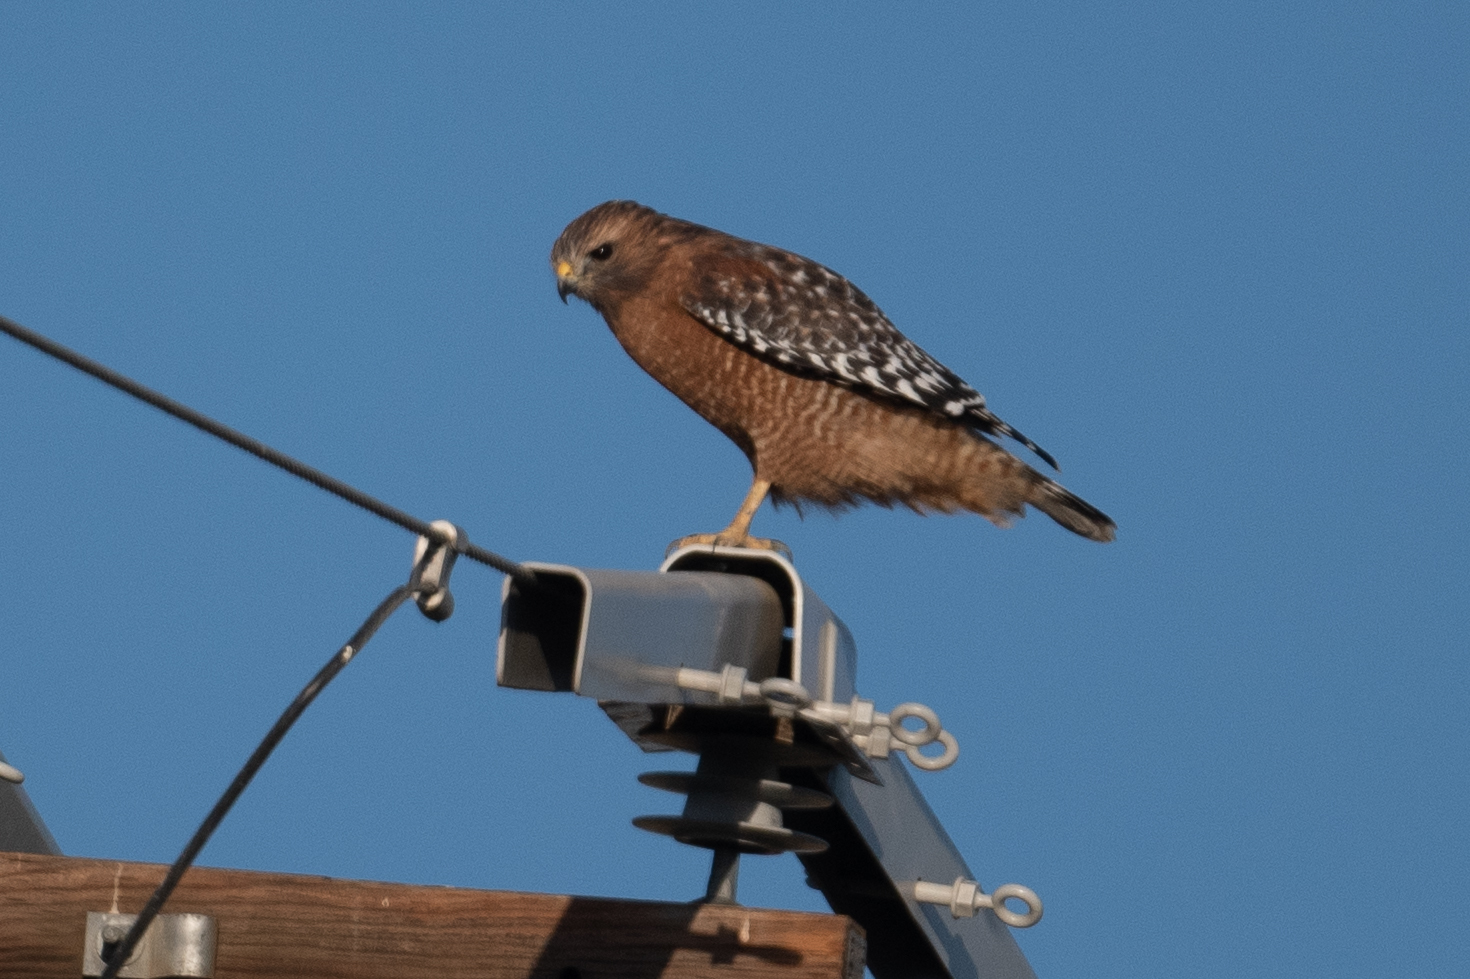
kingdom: Animalia
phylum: Chordata
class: Aves
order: Accipitriformes
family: Accipitridae
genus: Buteo
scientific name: Buteo lineatus
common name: Red-shouldered hawk
